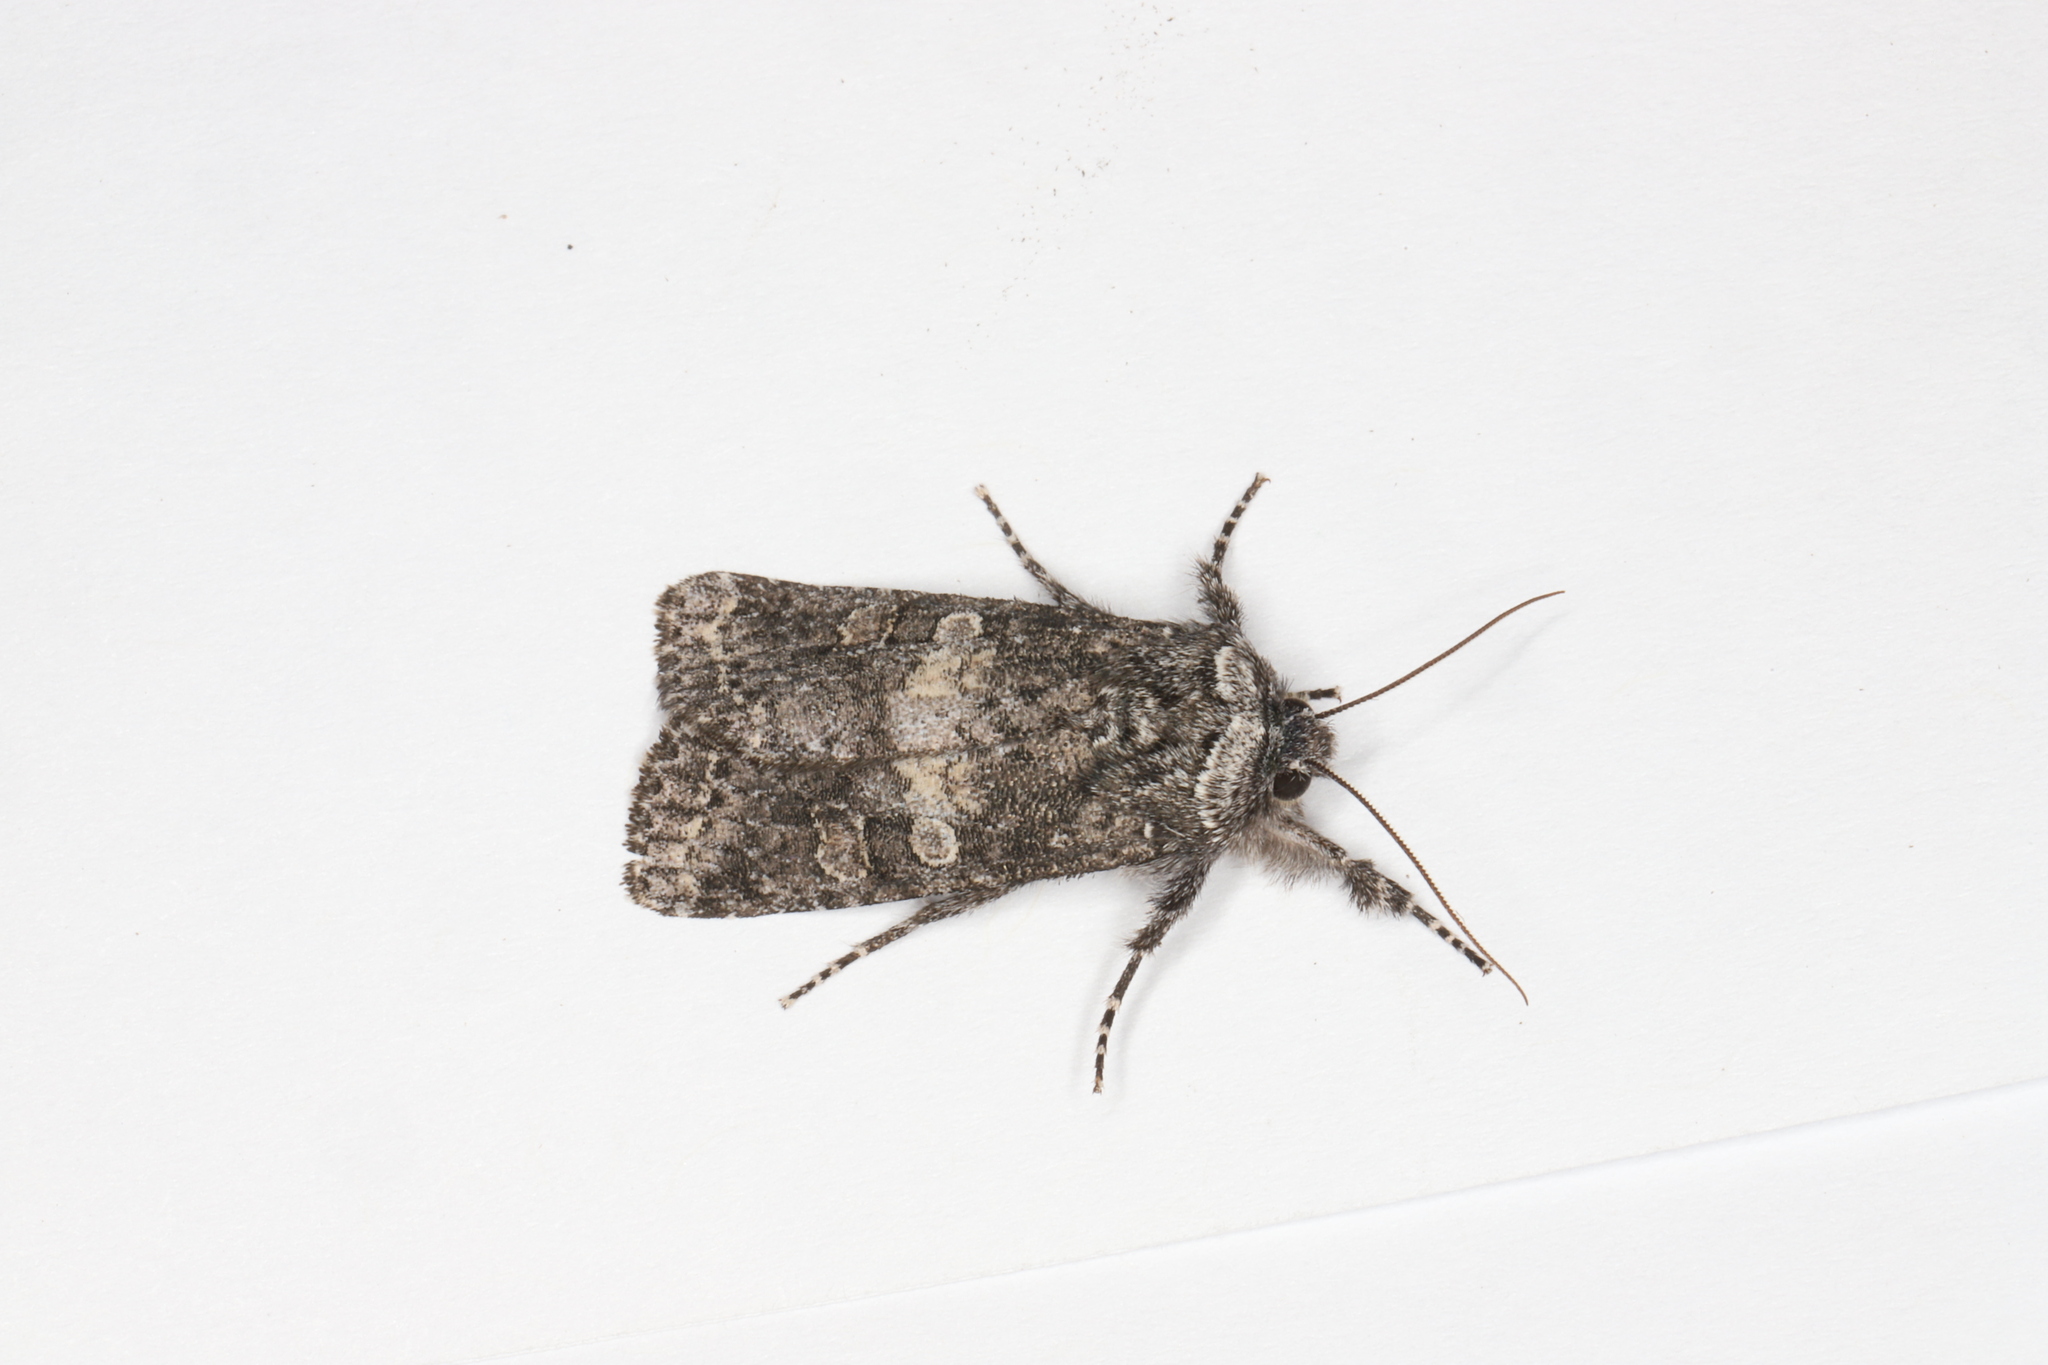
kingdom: Animalia
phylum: Arthropoda
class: Insecta
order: Lepidoptera
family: Noctuidae
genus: Egira
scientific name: Egira dolosa
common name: Lined black aspen cat.
